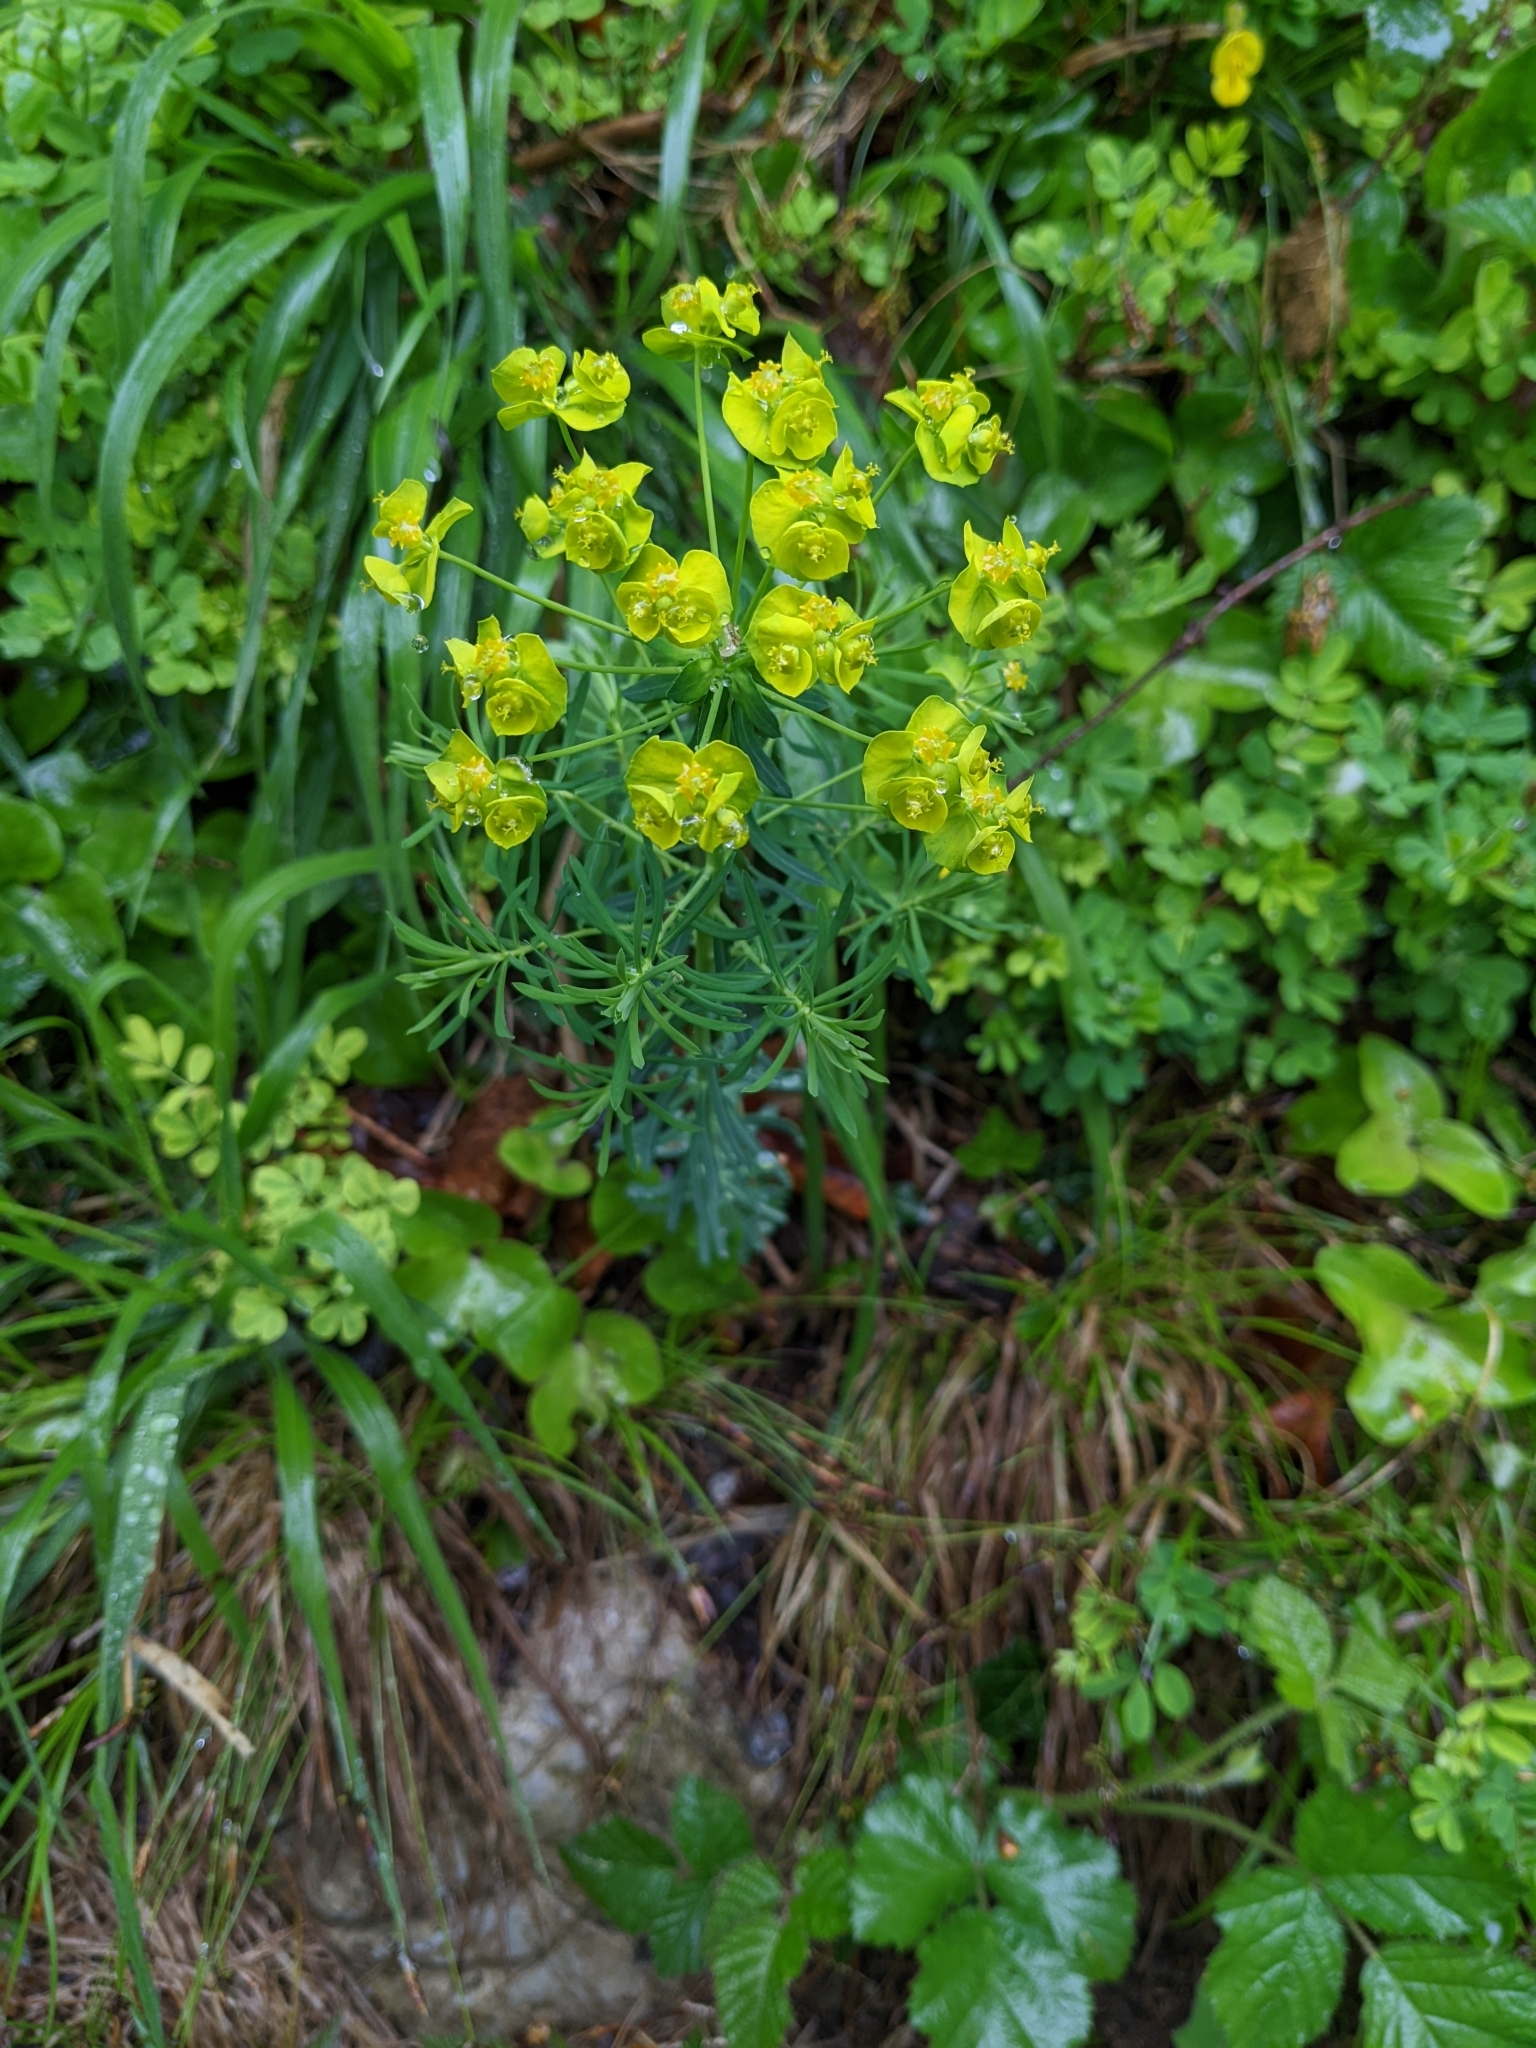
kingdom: Plantae
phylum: Tracheophyta
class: Magnoliopsida
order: Malpighiales
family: Euphorbiaceae
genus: Euphorbia
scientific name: Euphorbia cyparissias
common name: Cypress spurge
